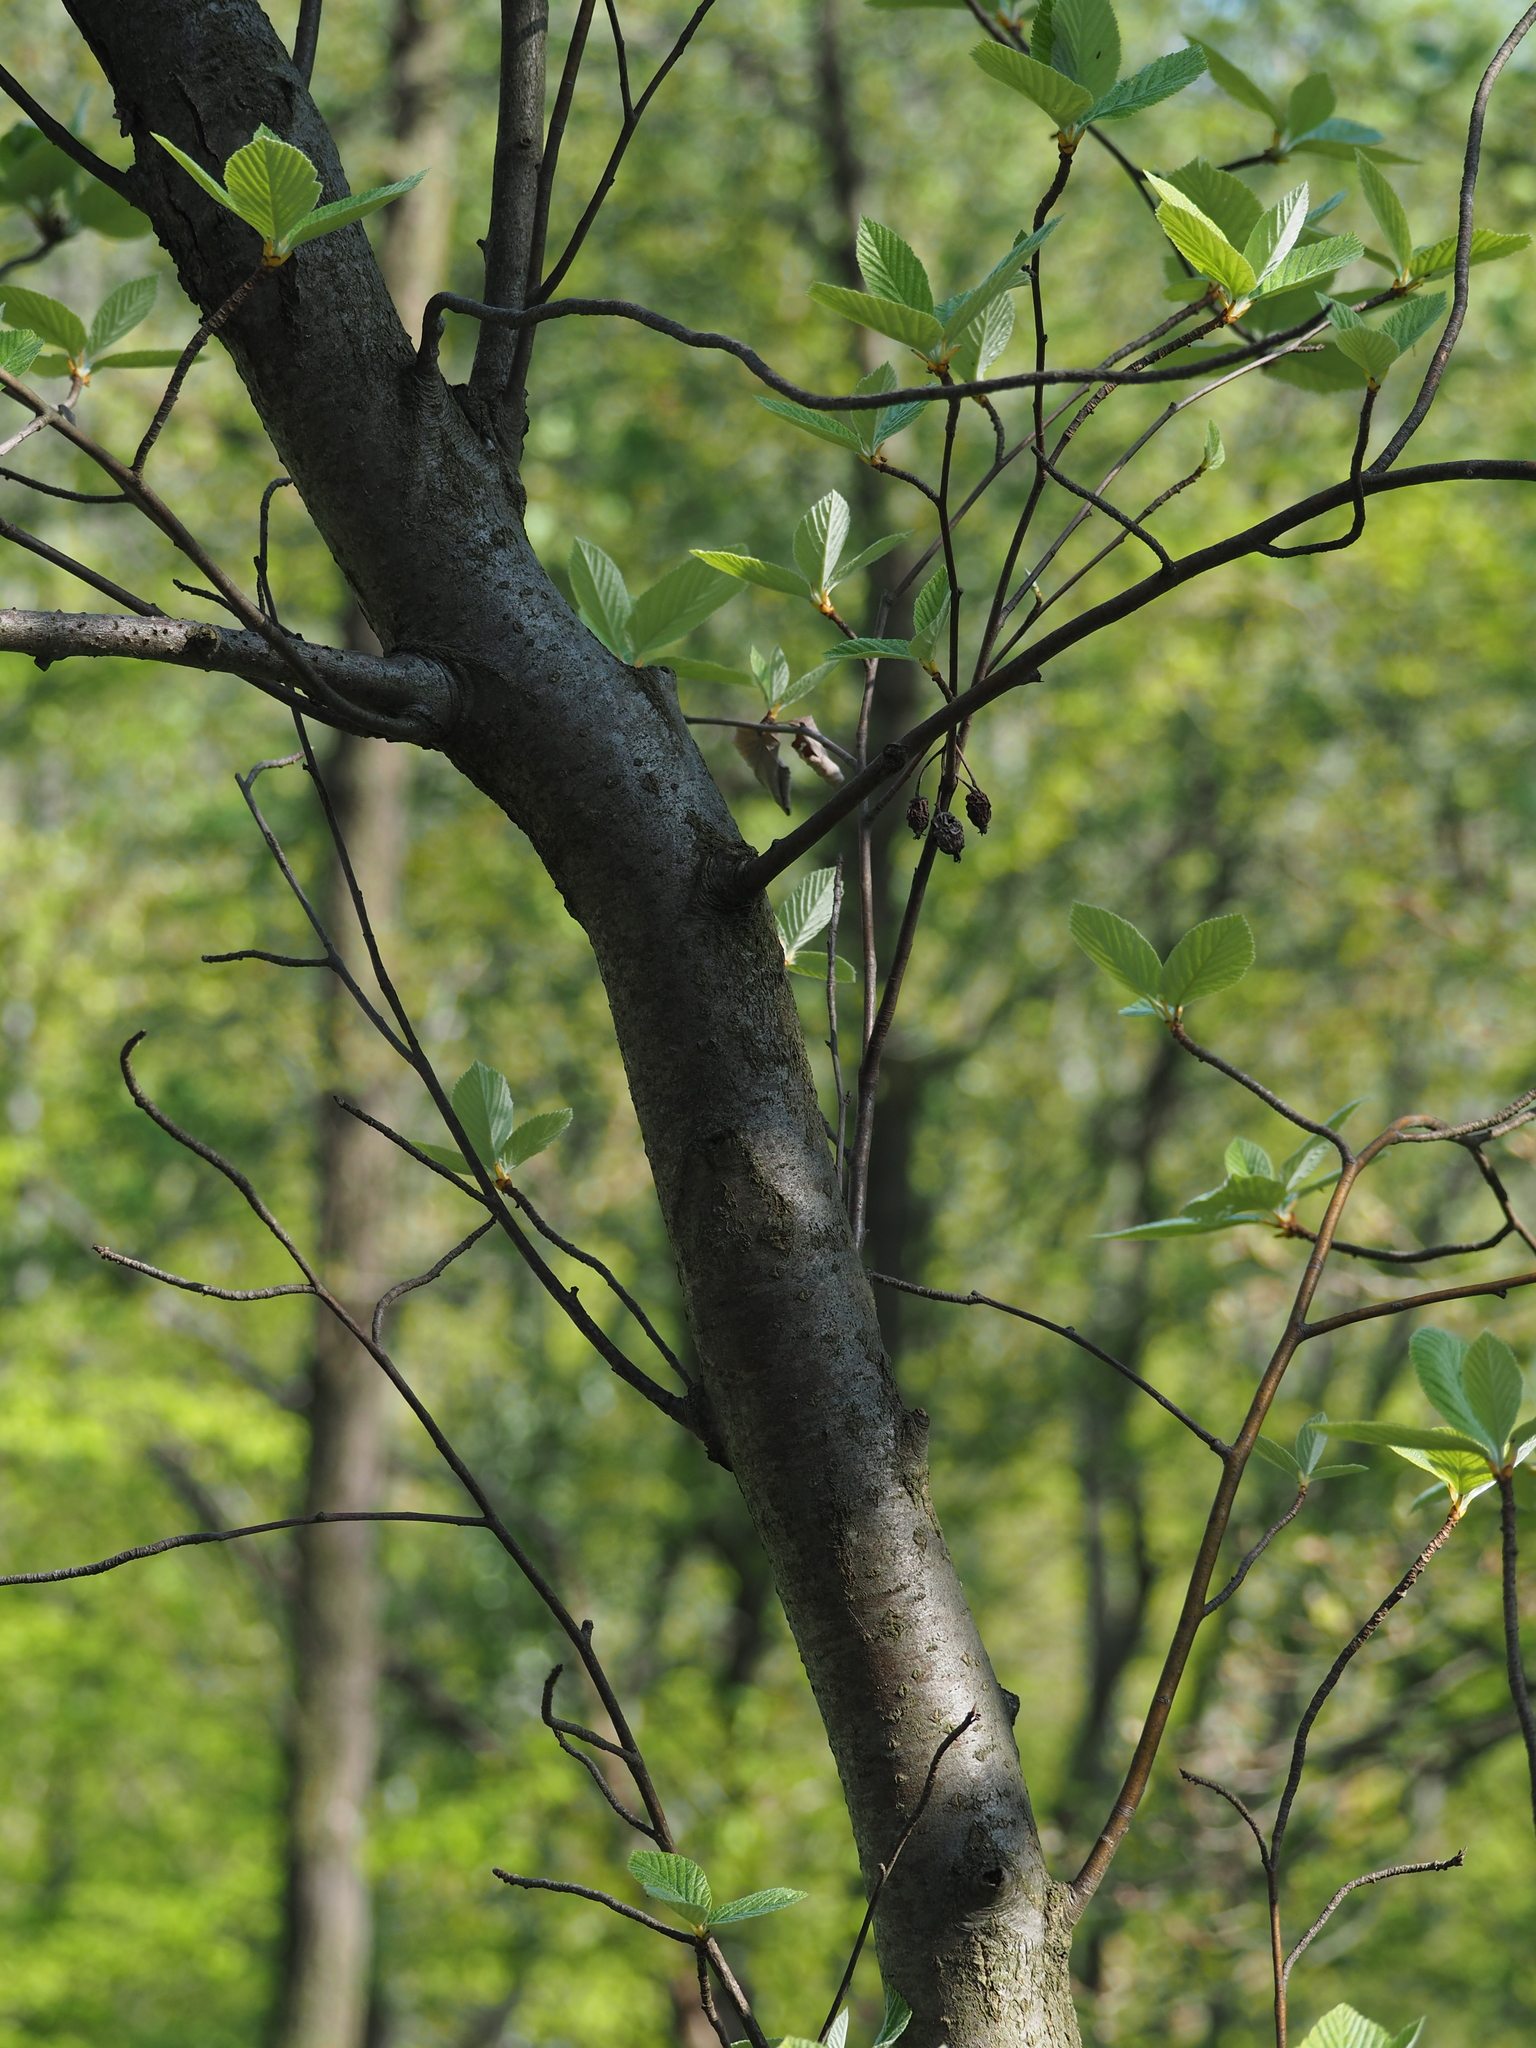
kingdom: Plantae
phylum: Tracheophyta
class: Magnoliopsida
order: Rosales
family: Rosaceae
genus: Aria
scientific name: Aria edulis
